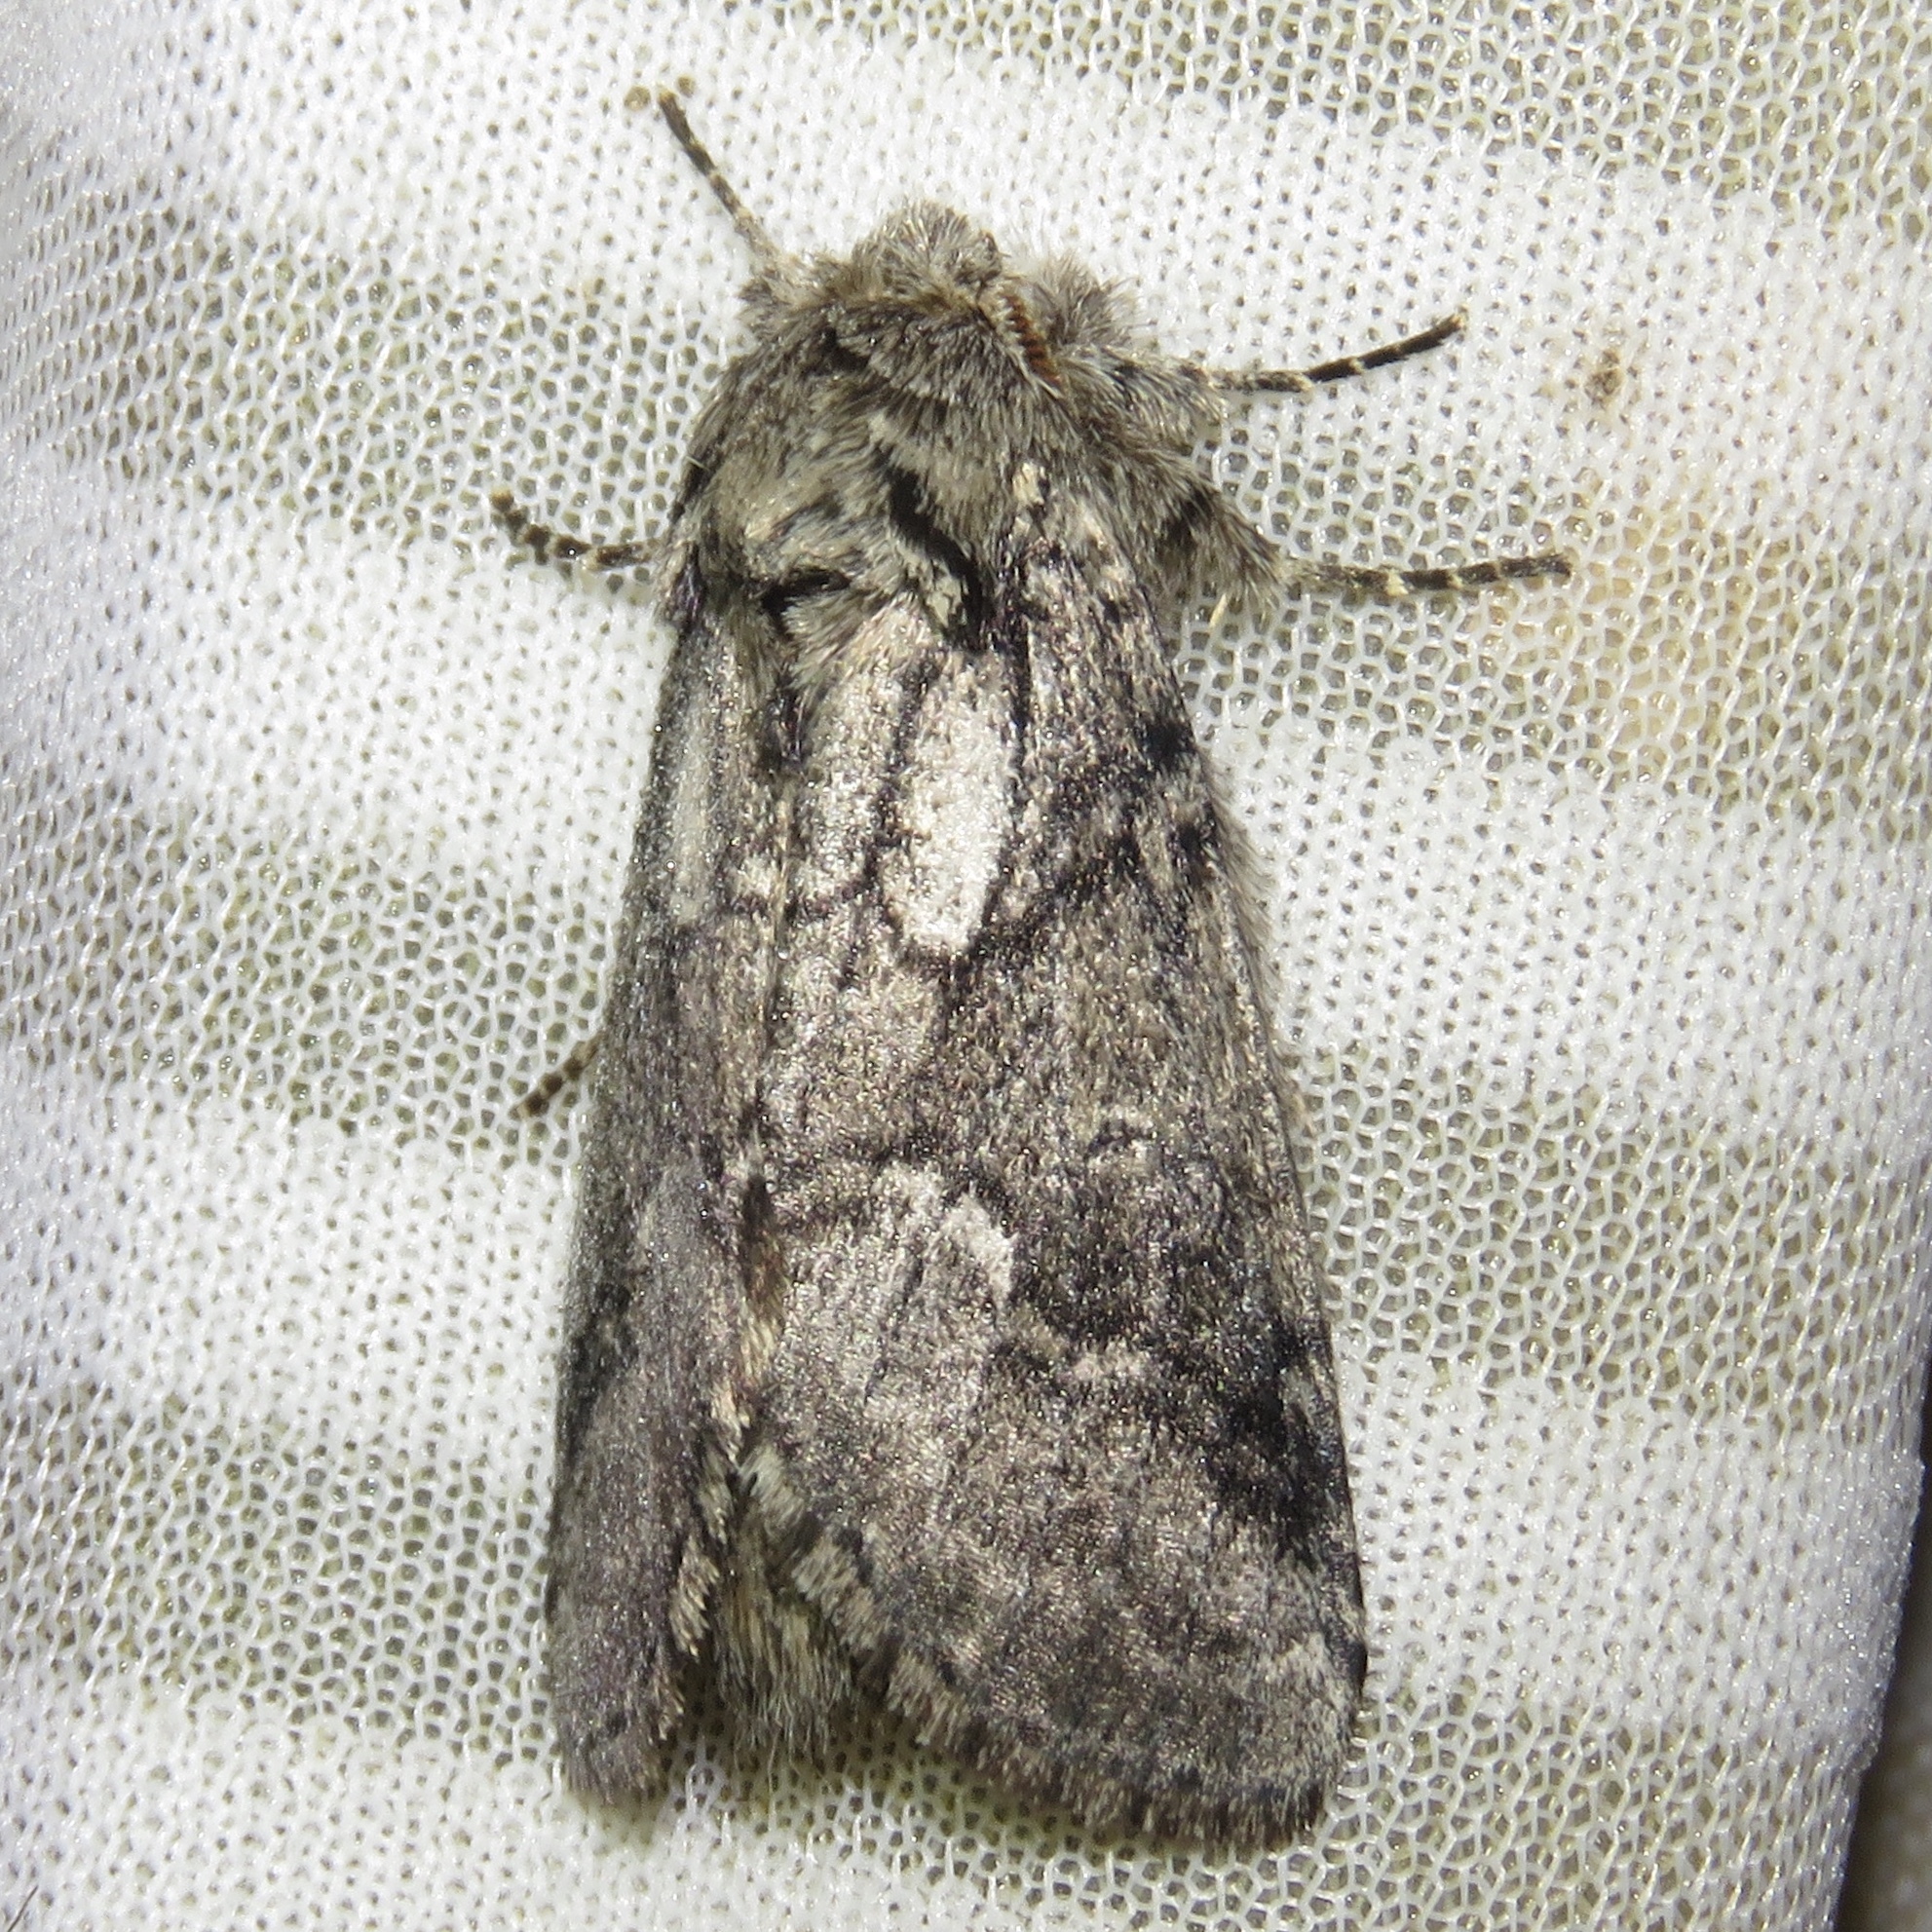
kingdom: Animalia
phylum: Arthropoda
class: Insecta
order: Lepidoptera
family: Notodontidae
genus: Lochmaeus
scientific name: Lochmaeus bilineata
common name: Double-lined prominent
